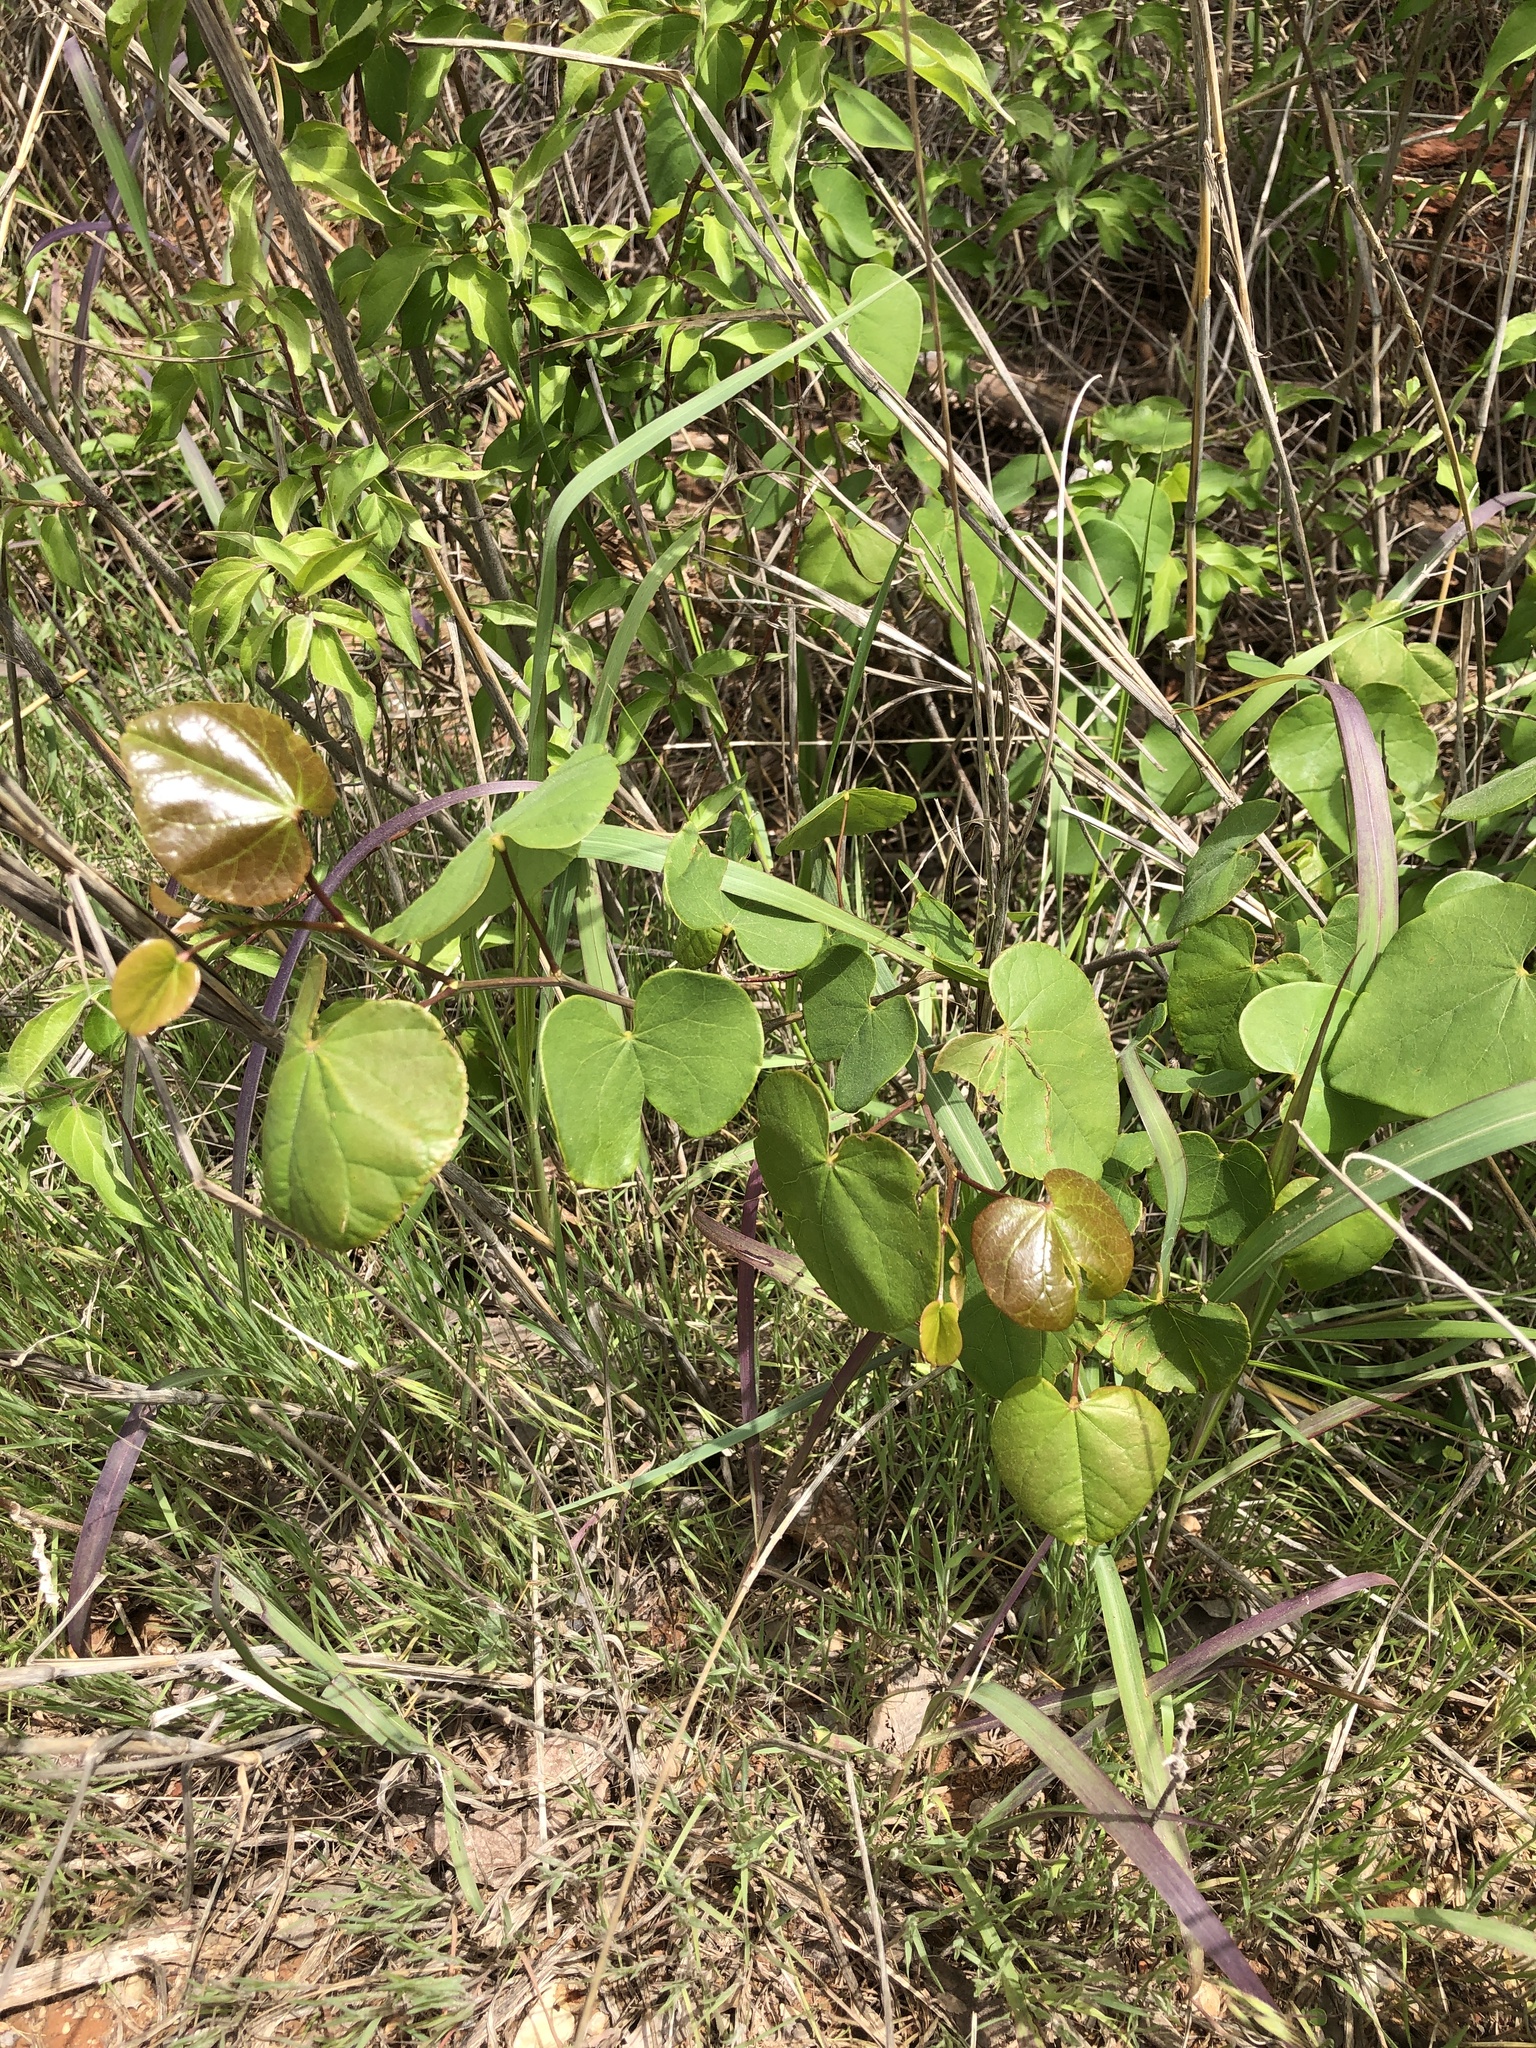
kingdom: Plantae
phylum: Tracheophyta
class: Magnoliopsida
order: Fabales
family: Fabaceae
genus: Cercis
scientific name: Cercis canadensis
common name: Eastern redbud
